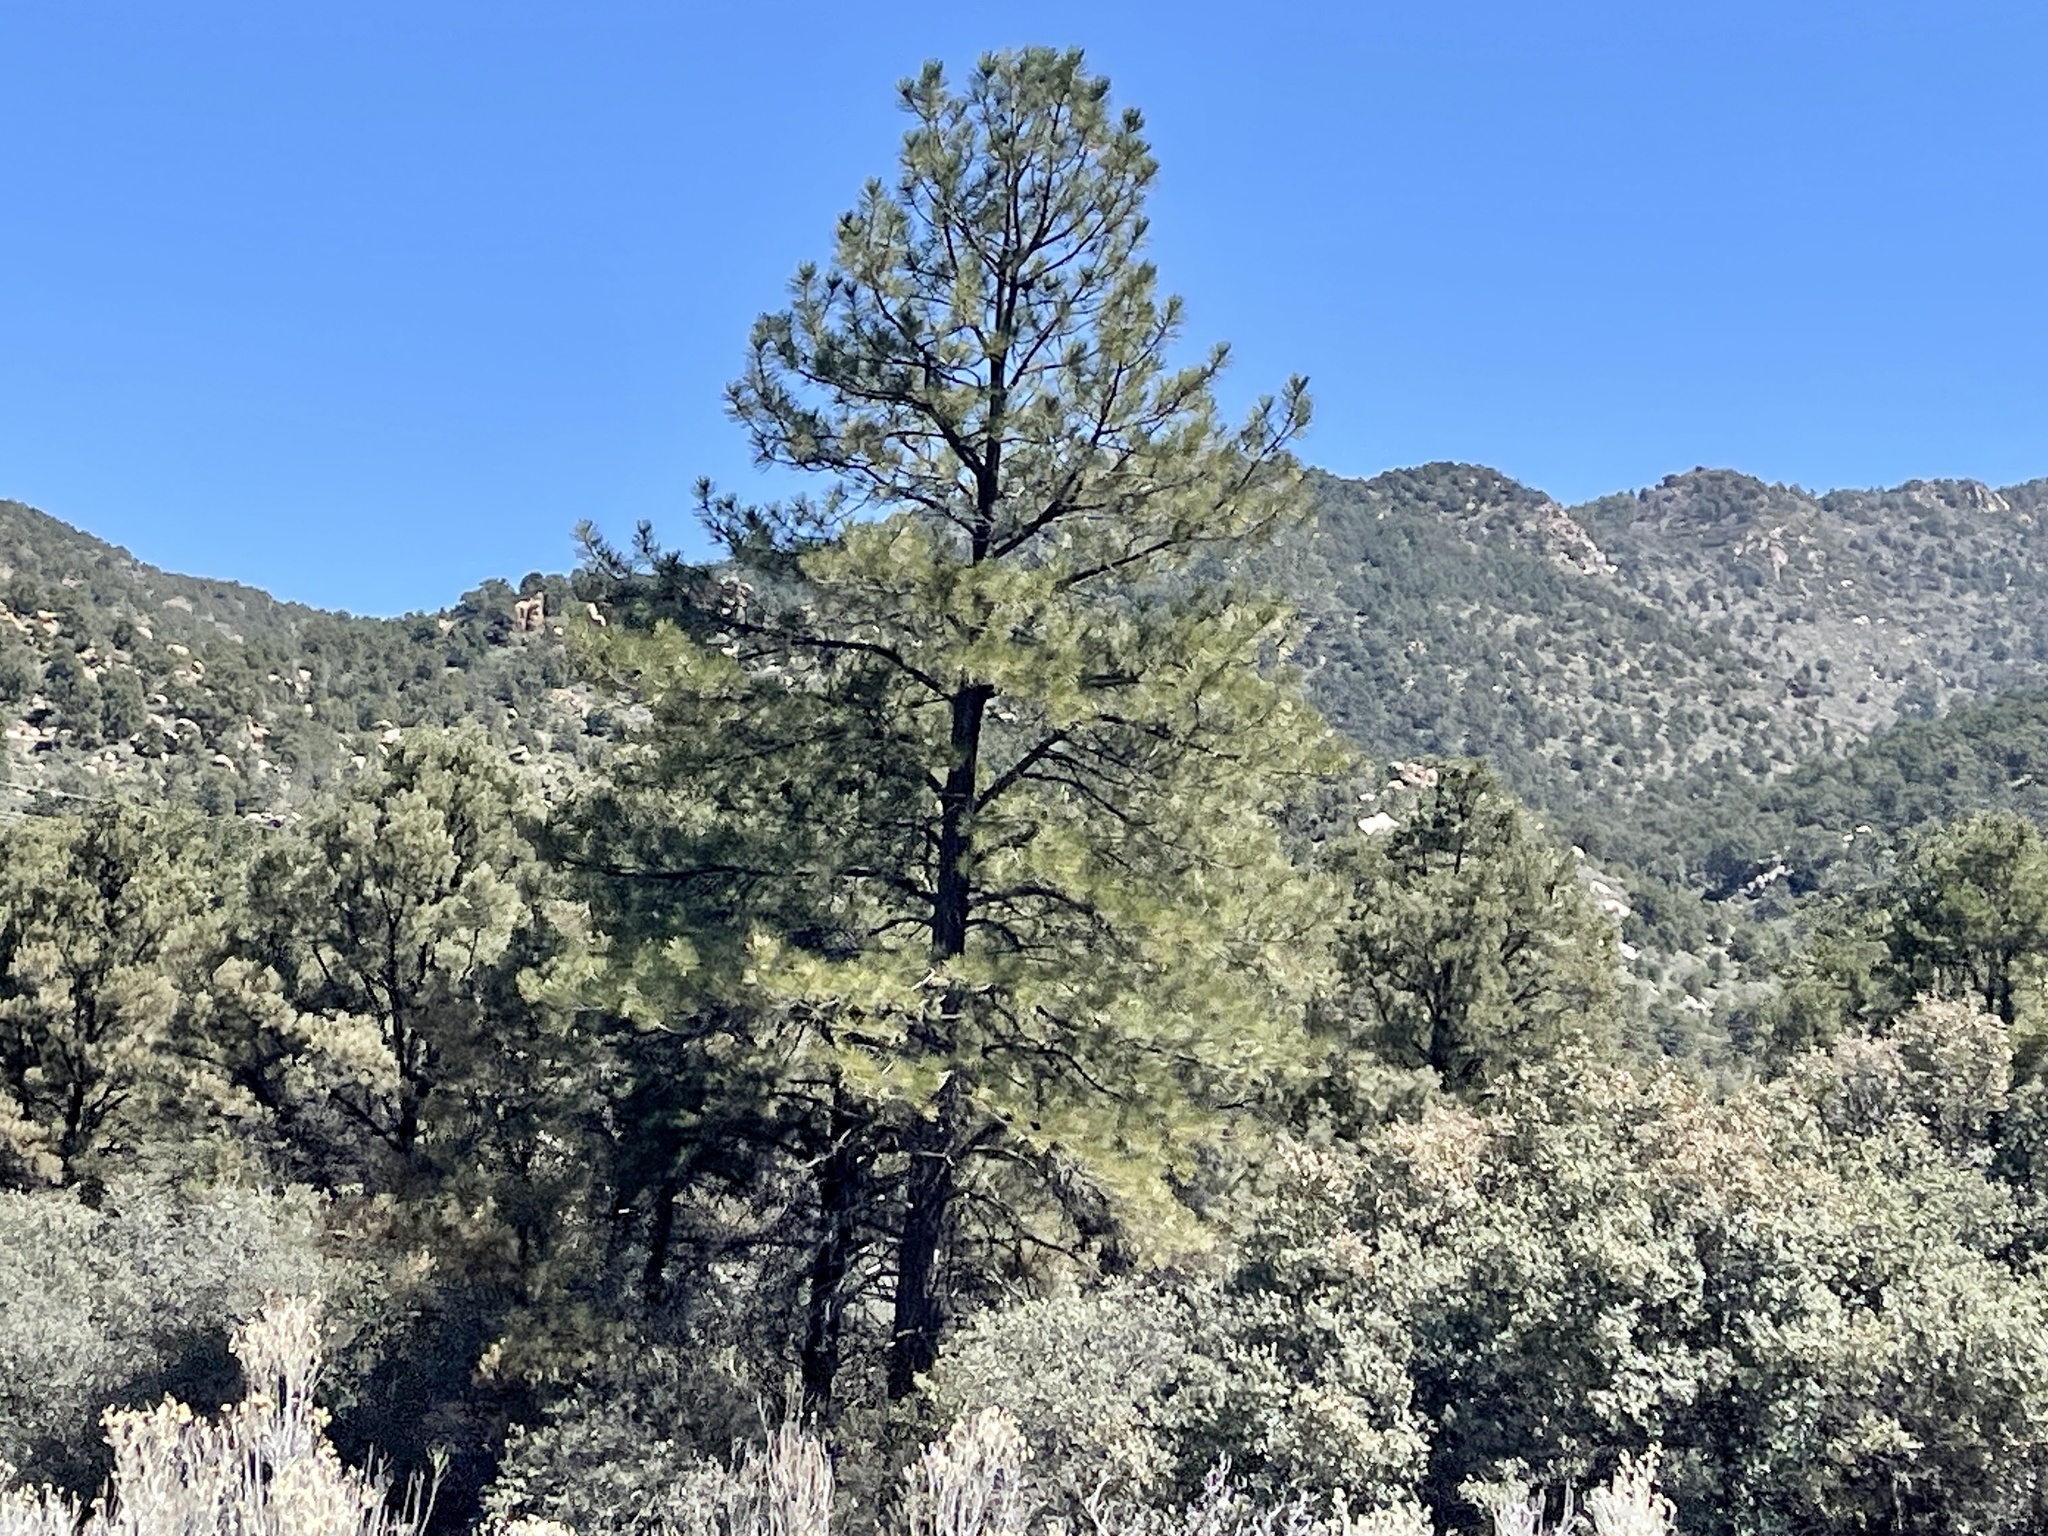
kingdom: Plantae
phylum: Tracheophyta
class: Pinopsida
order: Pinales
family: Pinaceae
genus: Pinus
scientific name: Pinus ponderosa
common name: Western yellow-pine
